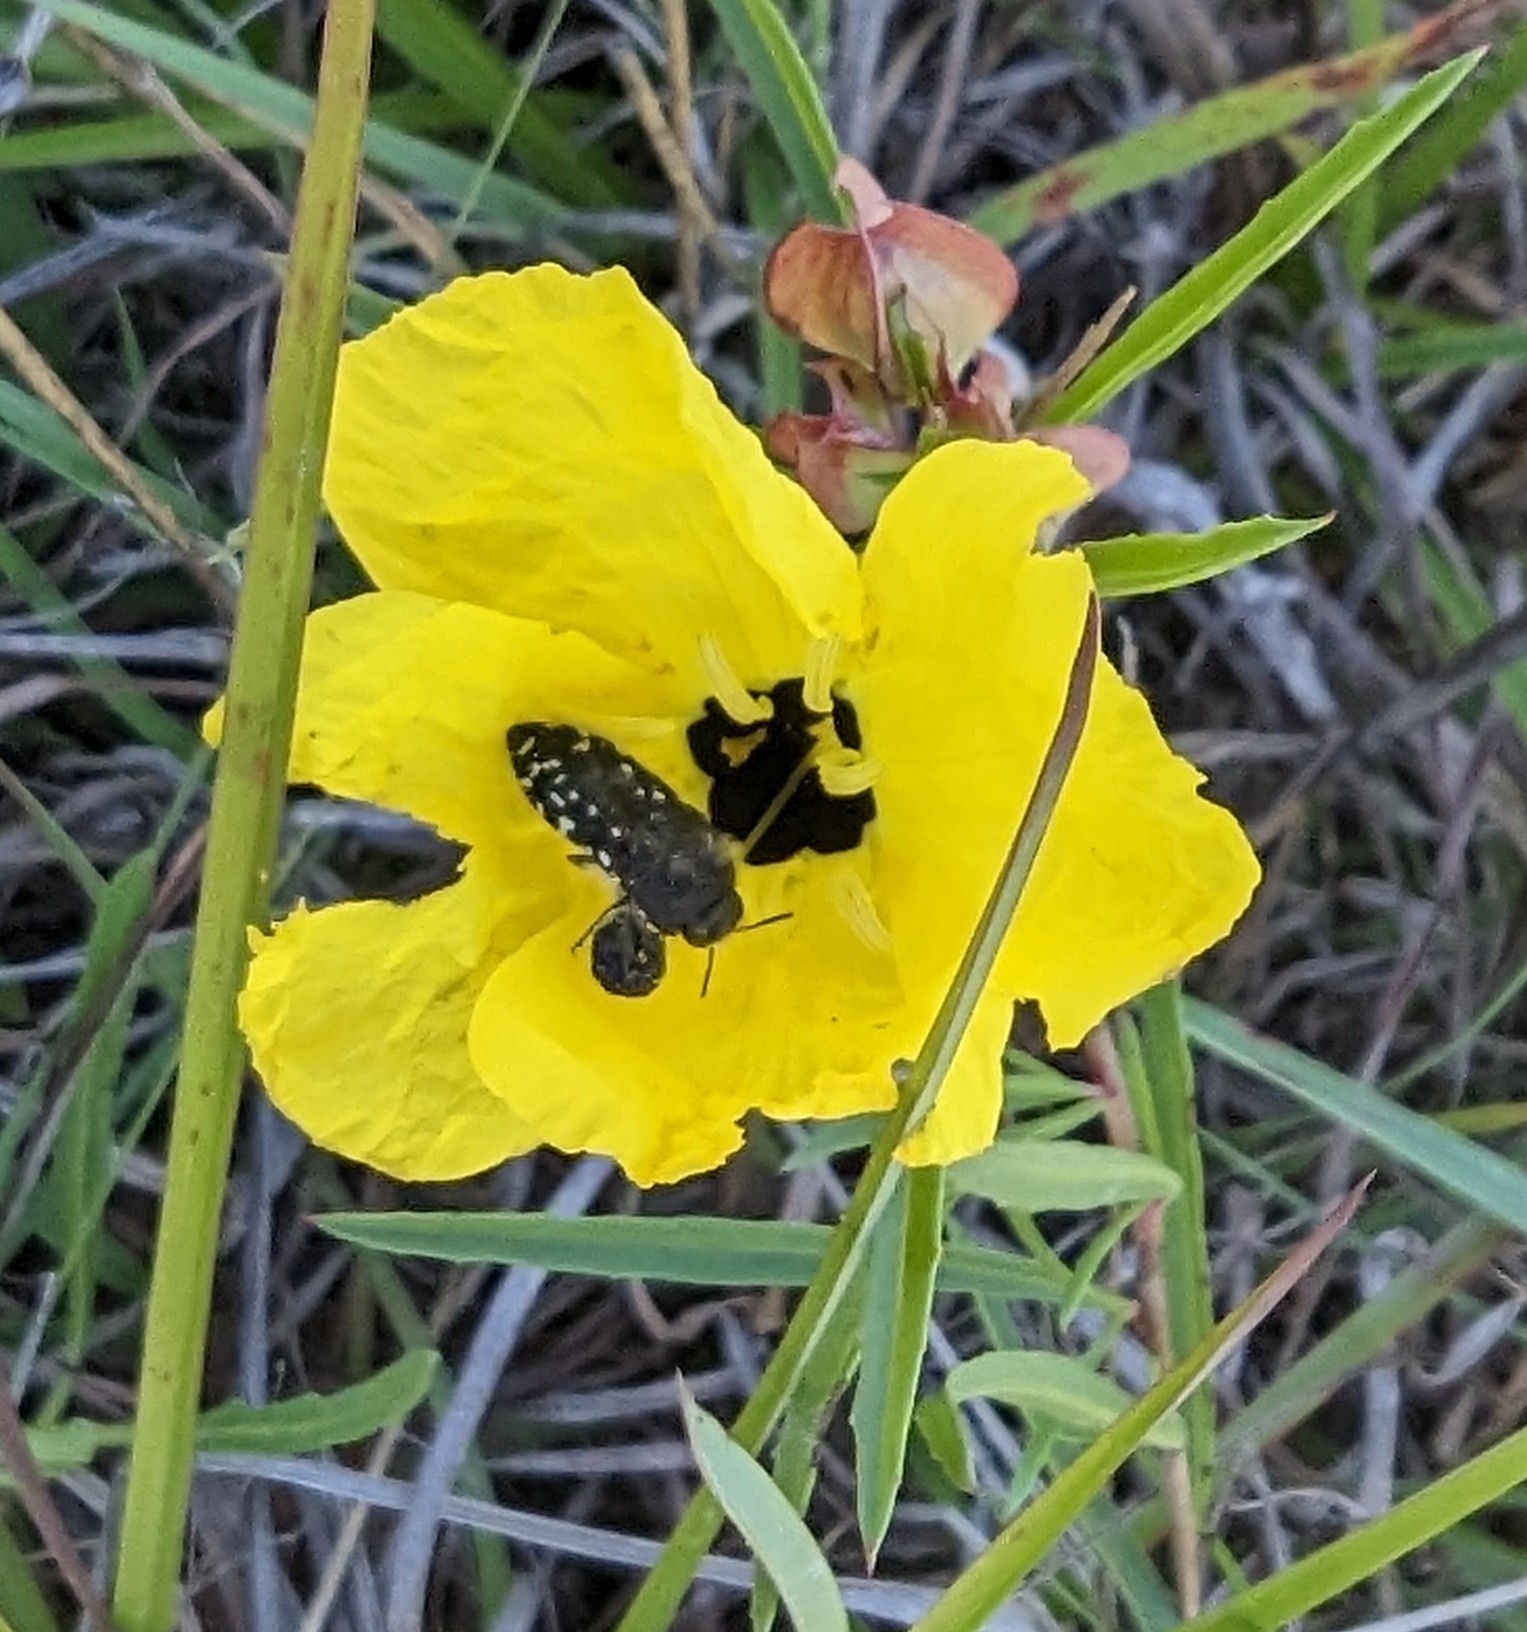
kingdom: Animalia
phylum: Arthropoda
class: Insecta
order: Coleoptera
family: Buprestidae
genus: Acmaeodera
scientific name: Acmaeodera ornatoides
